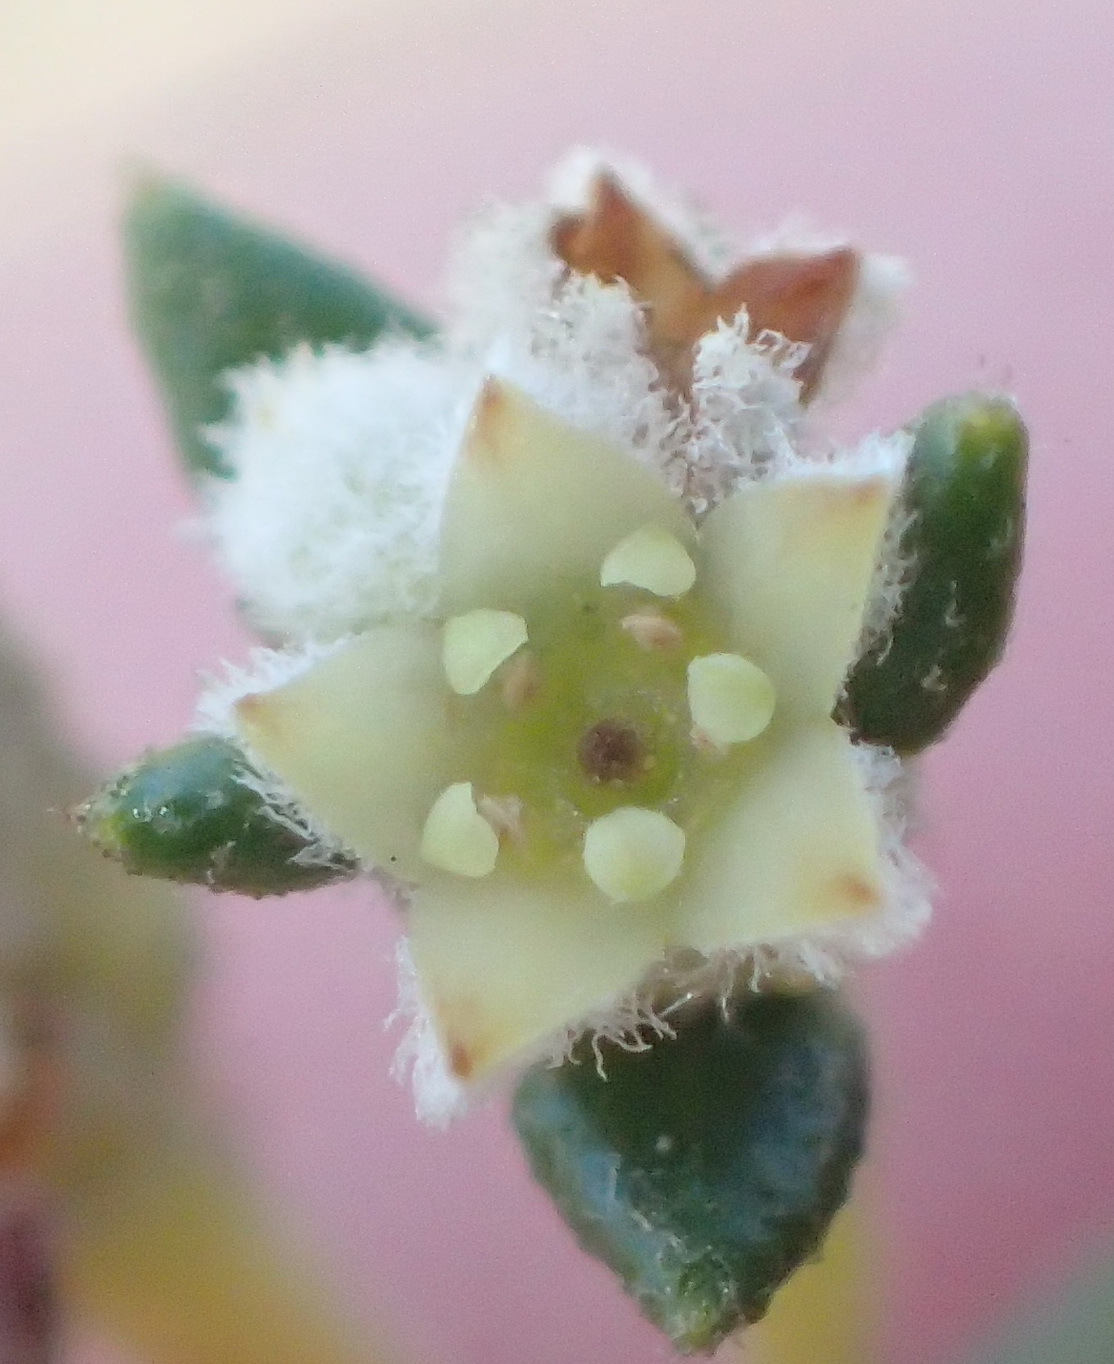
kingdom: Plantae
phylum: Tracheophyta
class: Magnoliopsida
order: Rosales
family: Rhamnaceae
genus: Phylica
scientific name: Phylica parviflora
